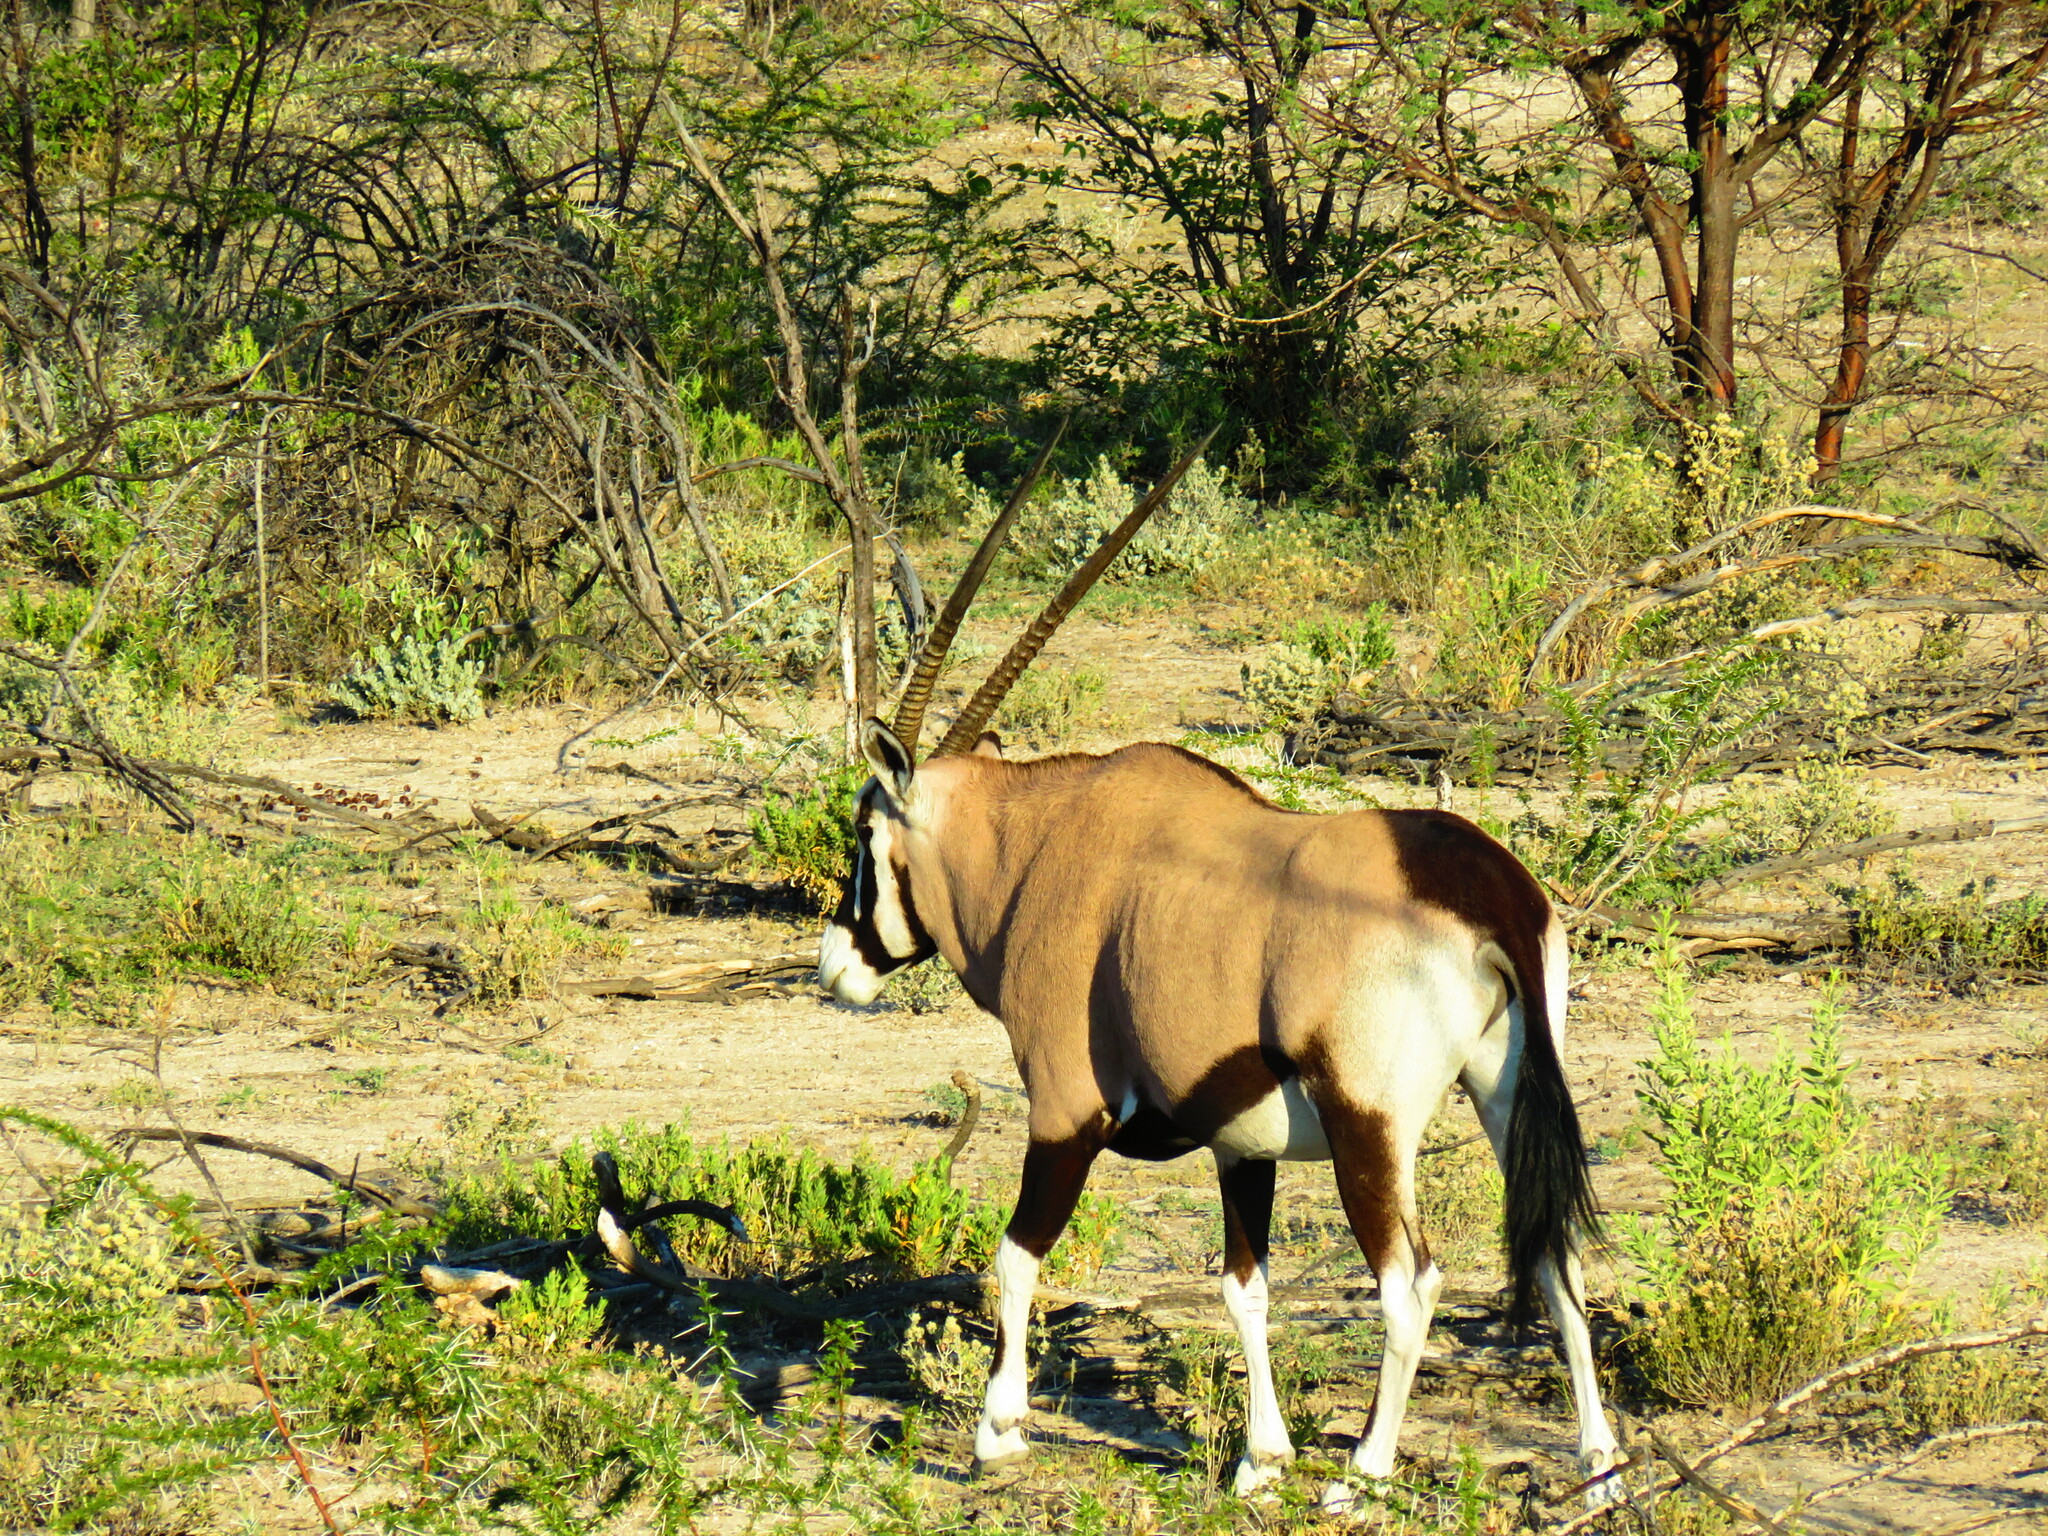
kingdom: Animalia
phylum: Chordata
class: Mammalia
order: Artiodactyla
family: Bovidae
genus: Oryx
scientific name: Oryx gazella
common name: Gemsbok
